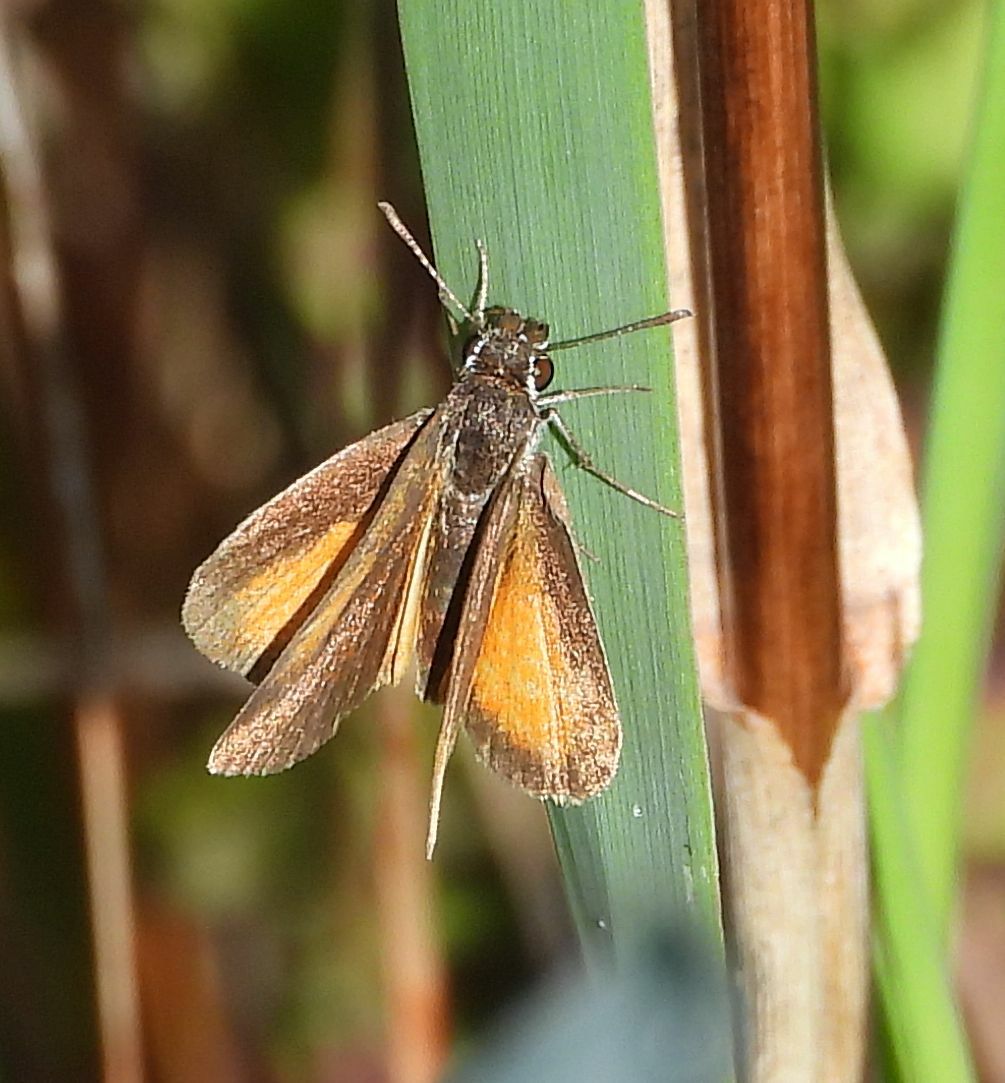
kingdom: Animalia
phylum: Arthropoda
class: Insecta
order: Lepidoptera
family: Hesperiidae
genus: Ancyloxypha
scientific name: Ancyloxypha numitor
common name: Least skipper
